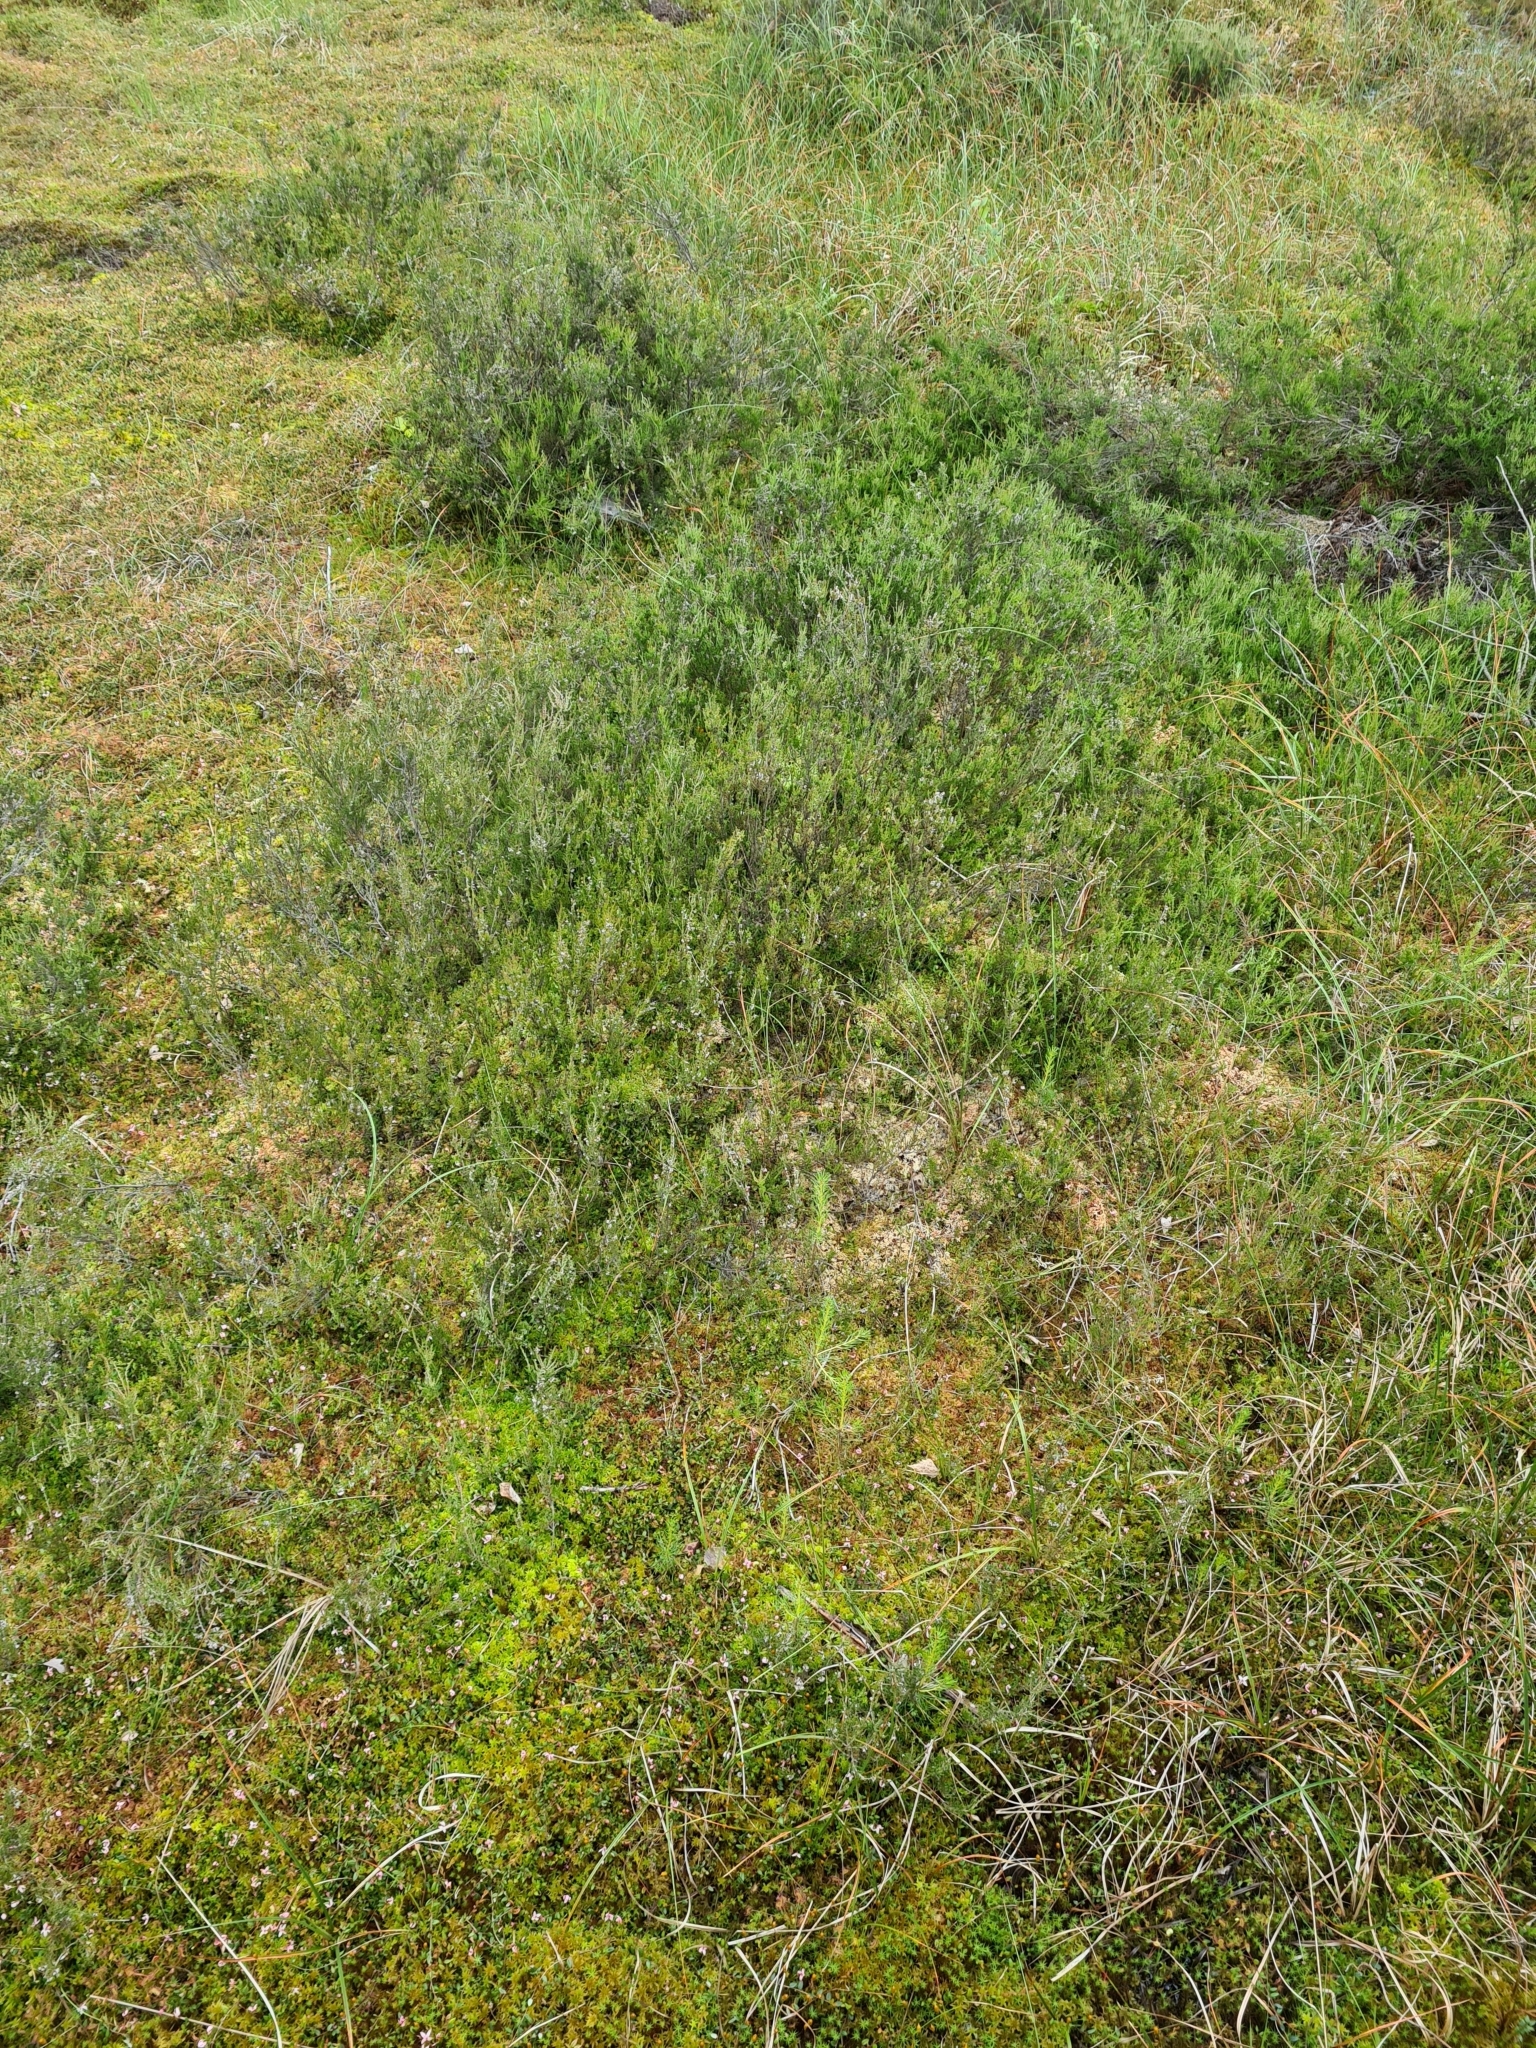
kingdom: Plantae
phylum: Tracheophyta
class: Magnoliopsida
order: Ericales
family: Ericaceae
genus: Calluna
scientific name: Calluna vulgaris
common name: Heather
